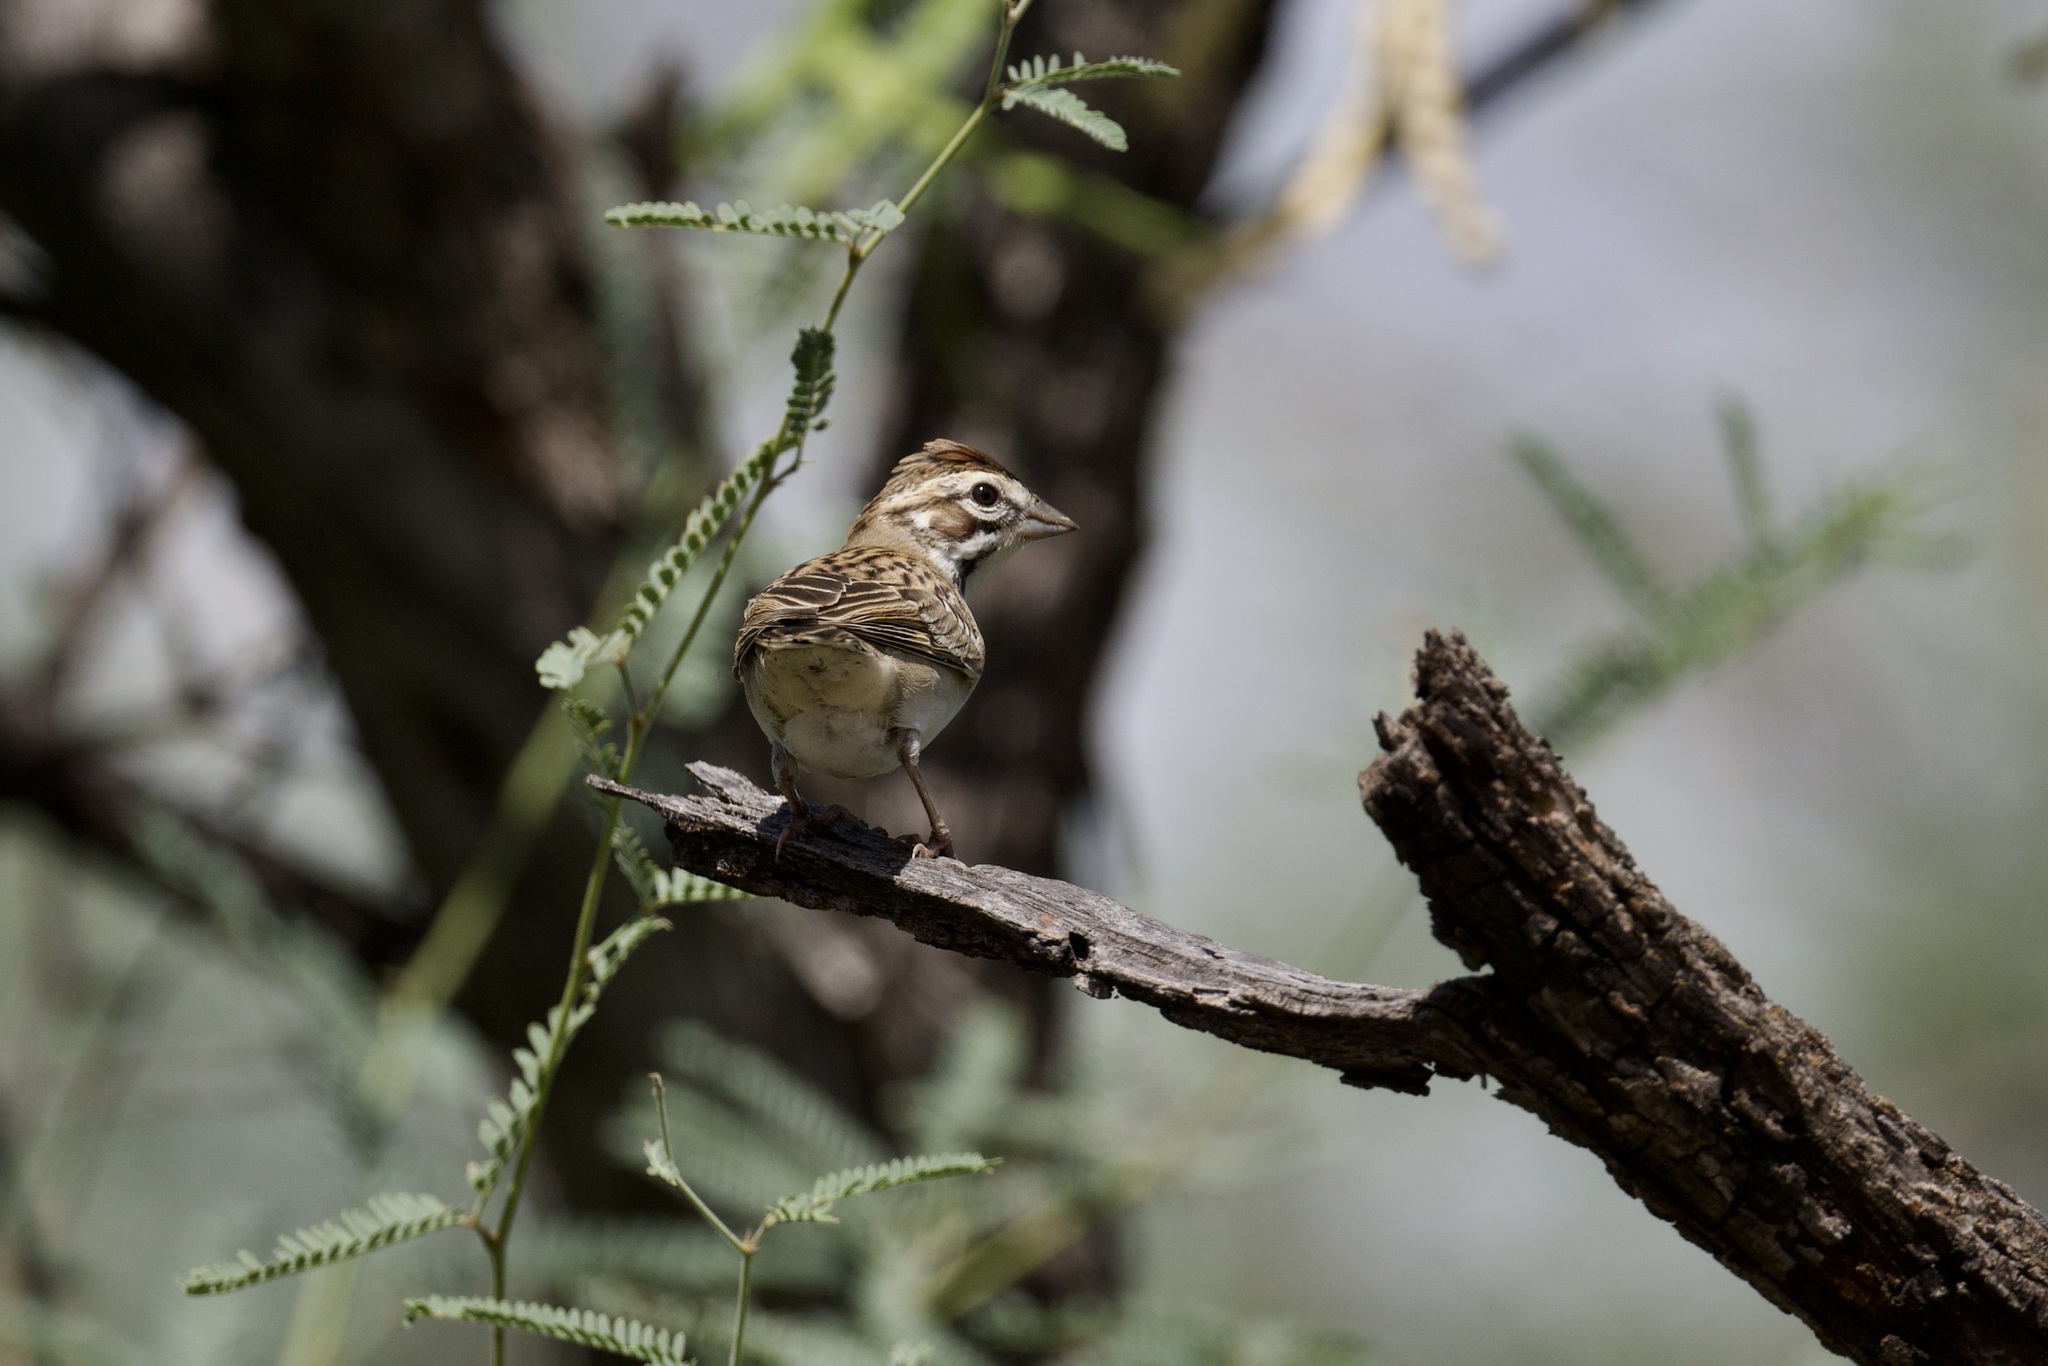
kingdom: Animalia
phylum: Chordata
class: Aves
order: Passeriformes
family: Passerellidae
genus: Chondestes
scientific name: Chondestes grammacus
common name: Lark sparrow
